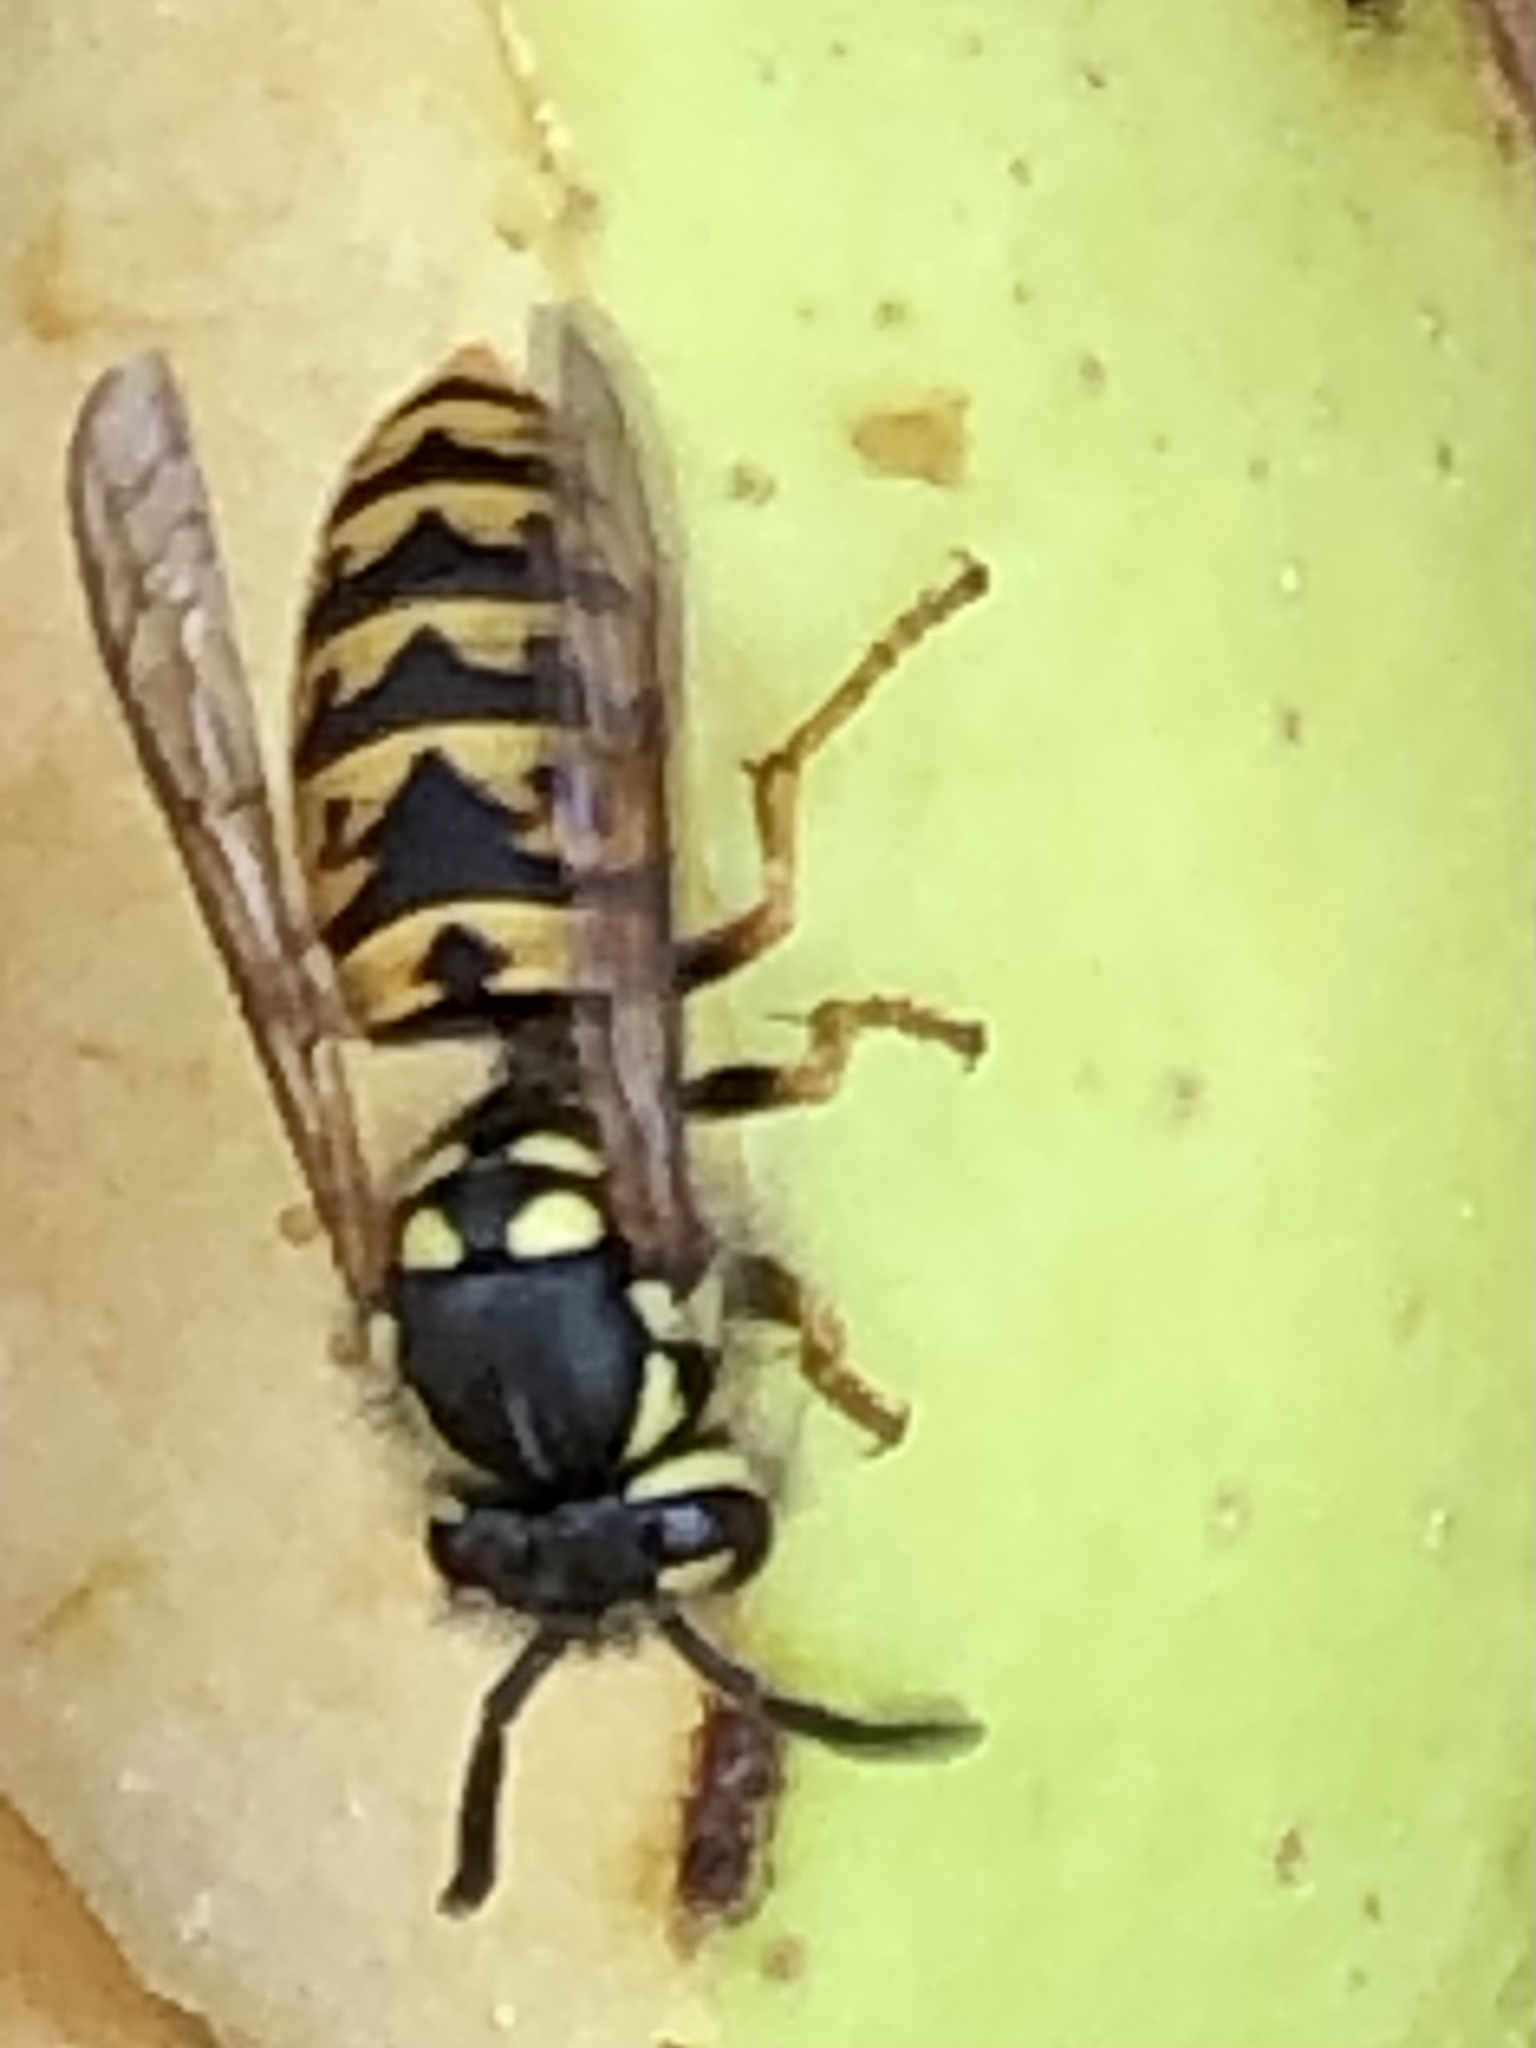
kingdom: Animalia
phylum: Arthropoda
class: Insecta
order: Hymenoptera
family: Vespidae
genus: Vespula
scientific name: Vespula germanica
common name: German wasp
